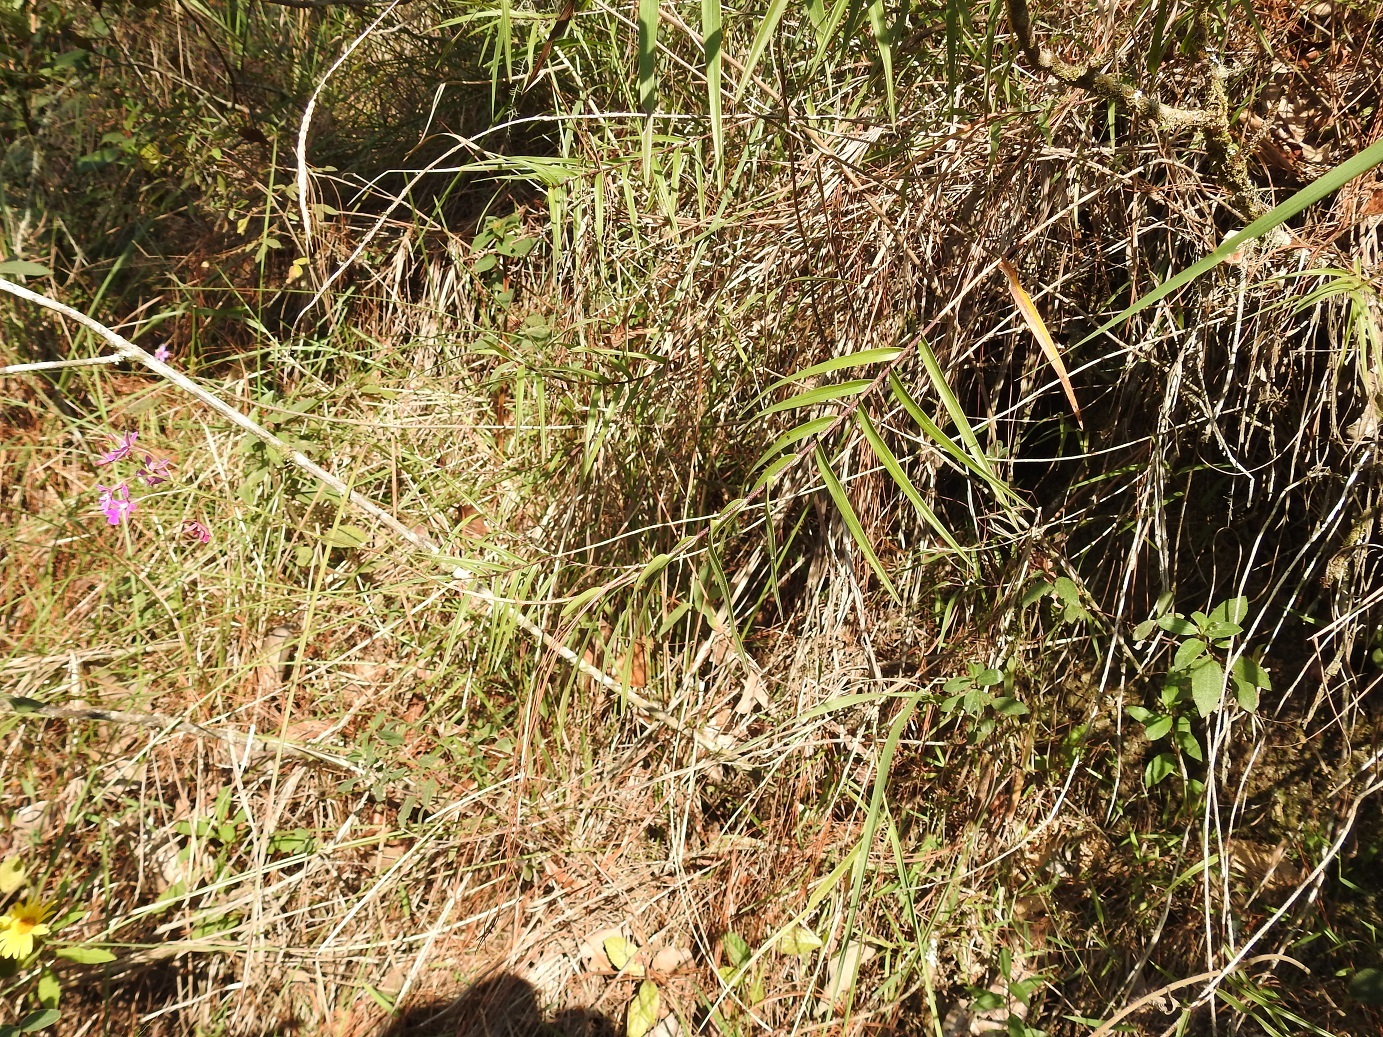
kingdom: Plantae
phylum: Tracheophyta
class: Liliopsida
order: Asparagales
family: Orchidaceae
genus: Epidendrum
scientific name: Epidendrum macdougallii
